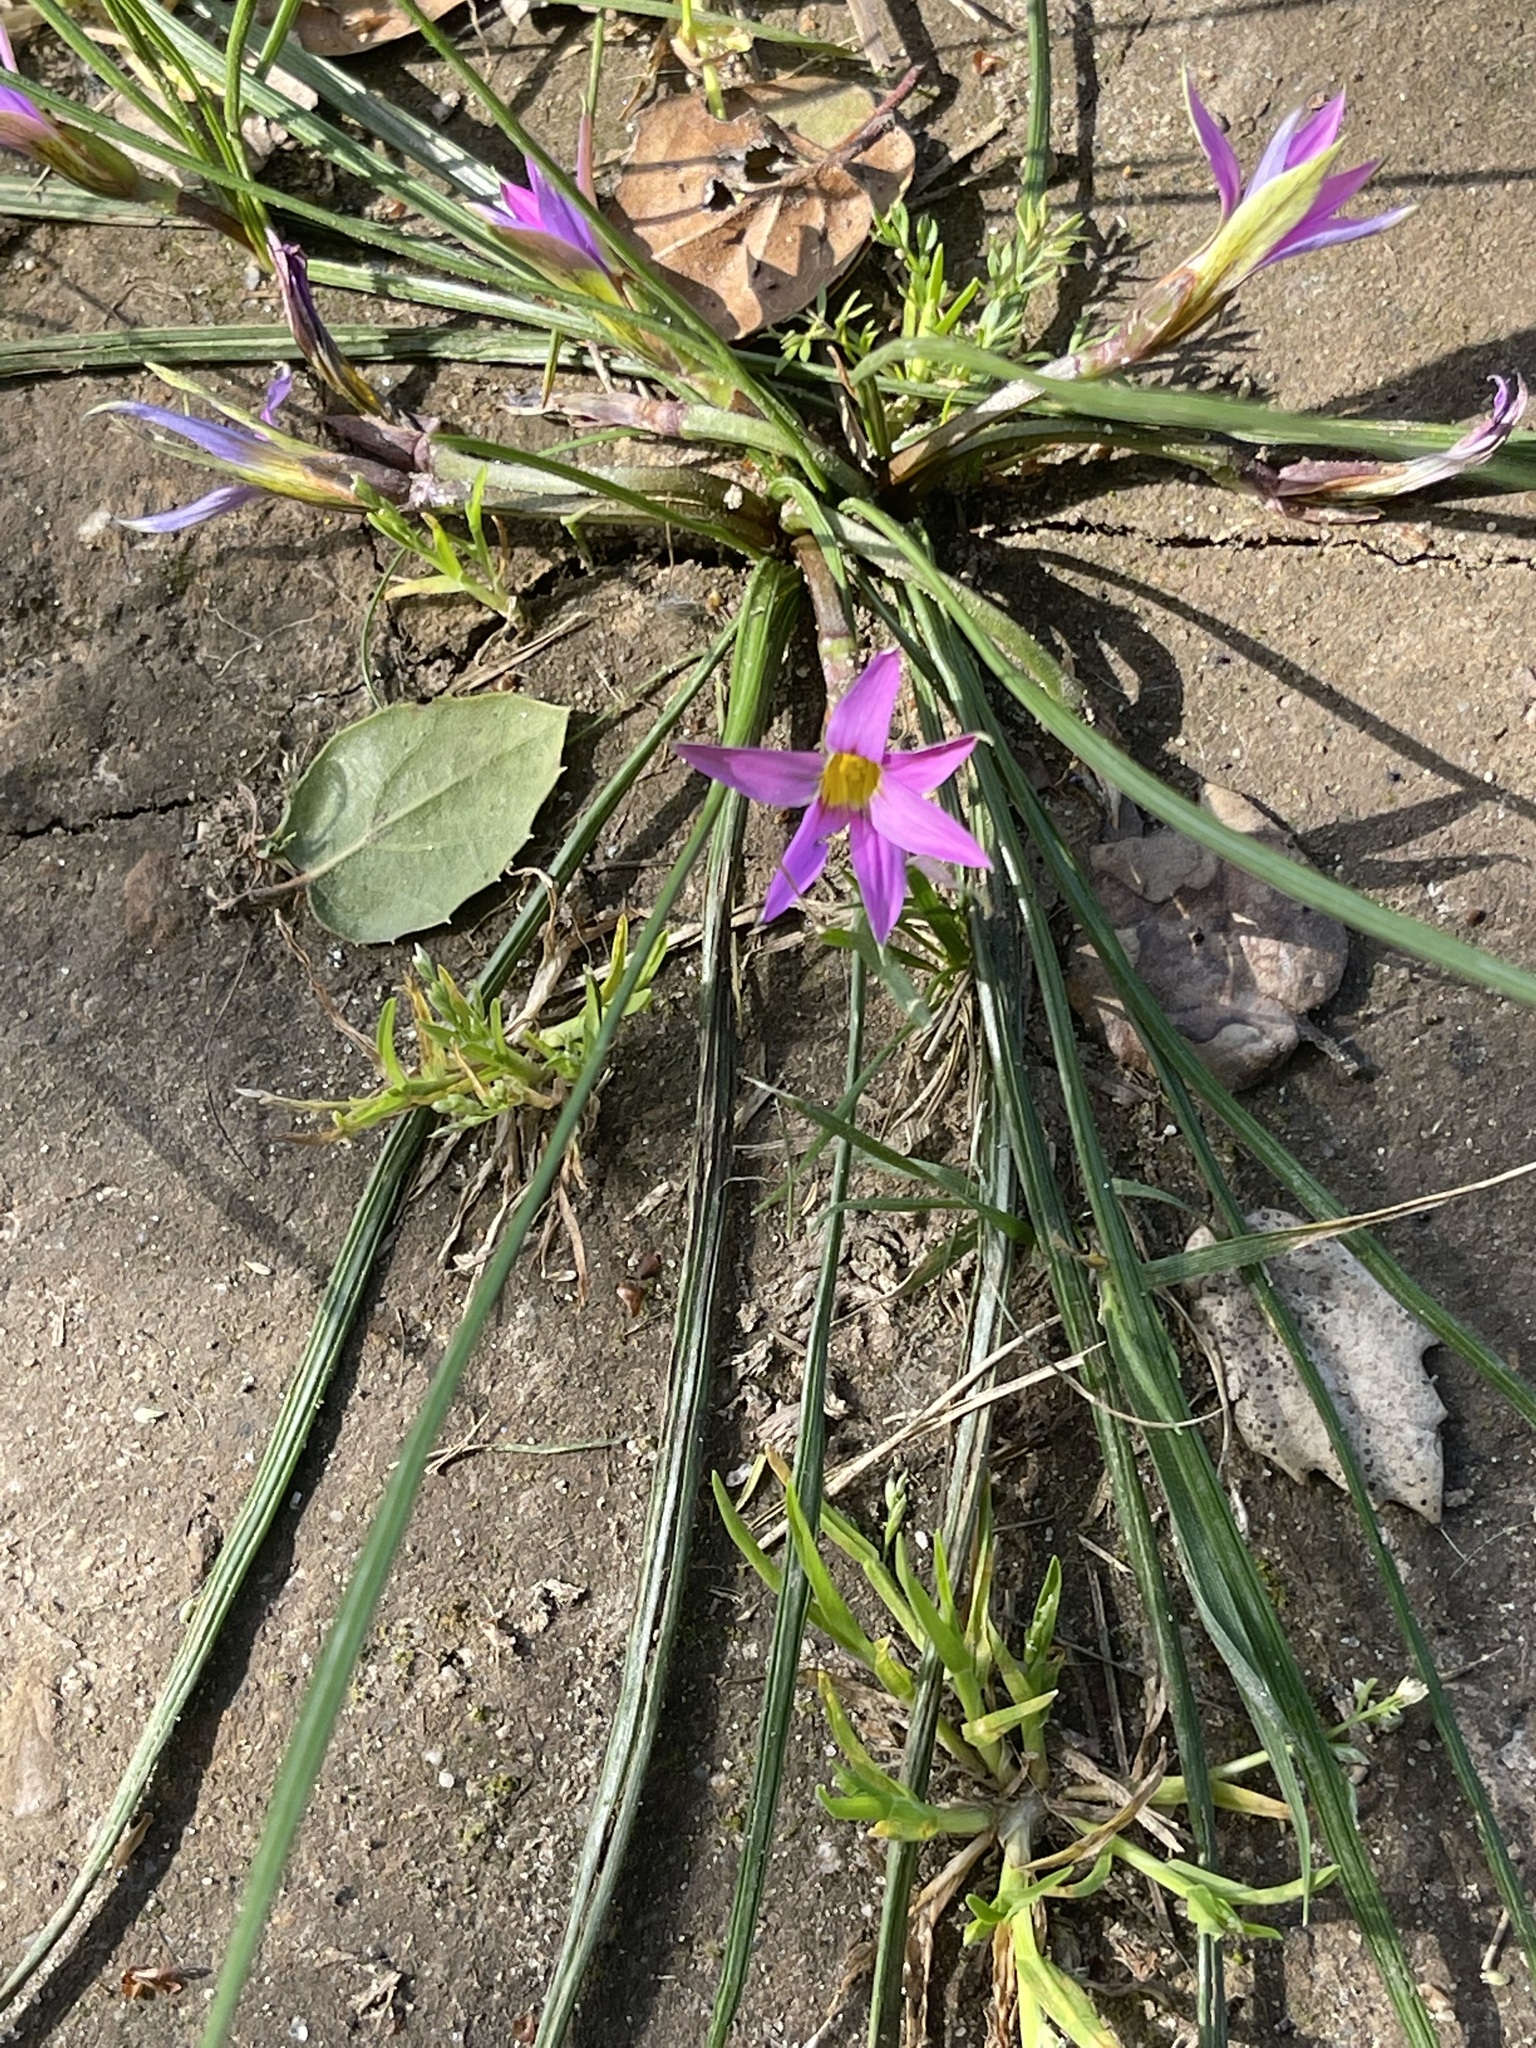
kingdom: Plantae
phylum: Tracheophyta
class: Liliopsida
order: Asparagales
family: Iridaceae
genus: Romulea
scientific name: Romulea rosea
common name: Oniongrass
